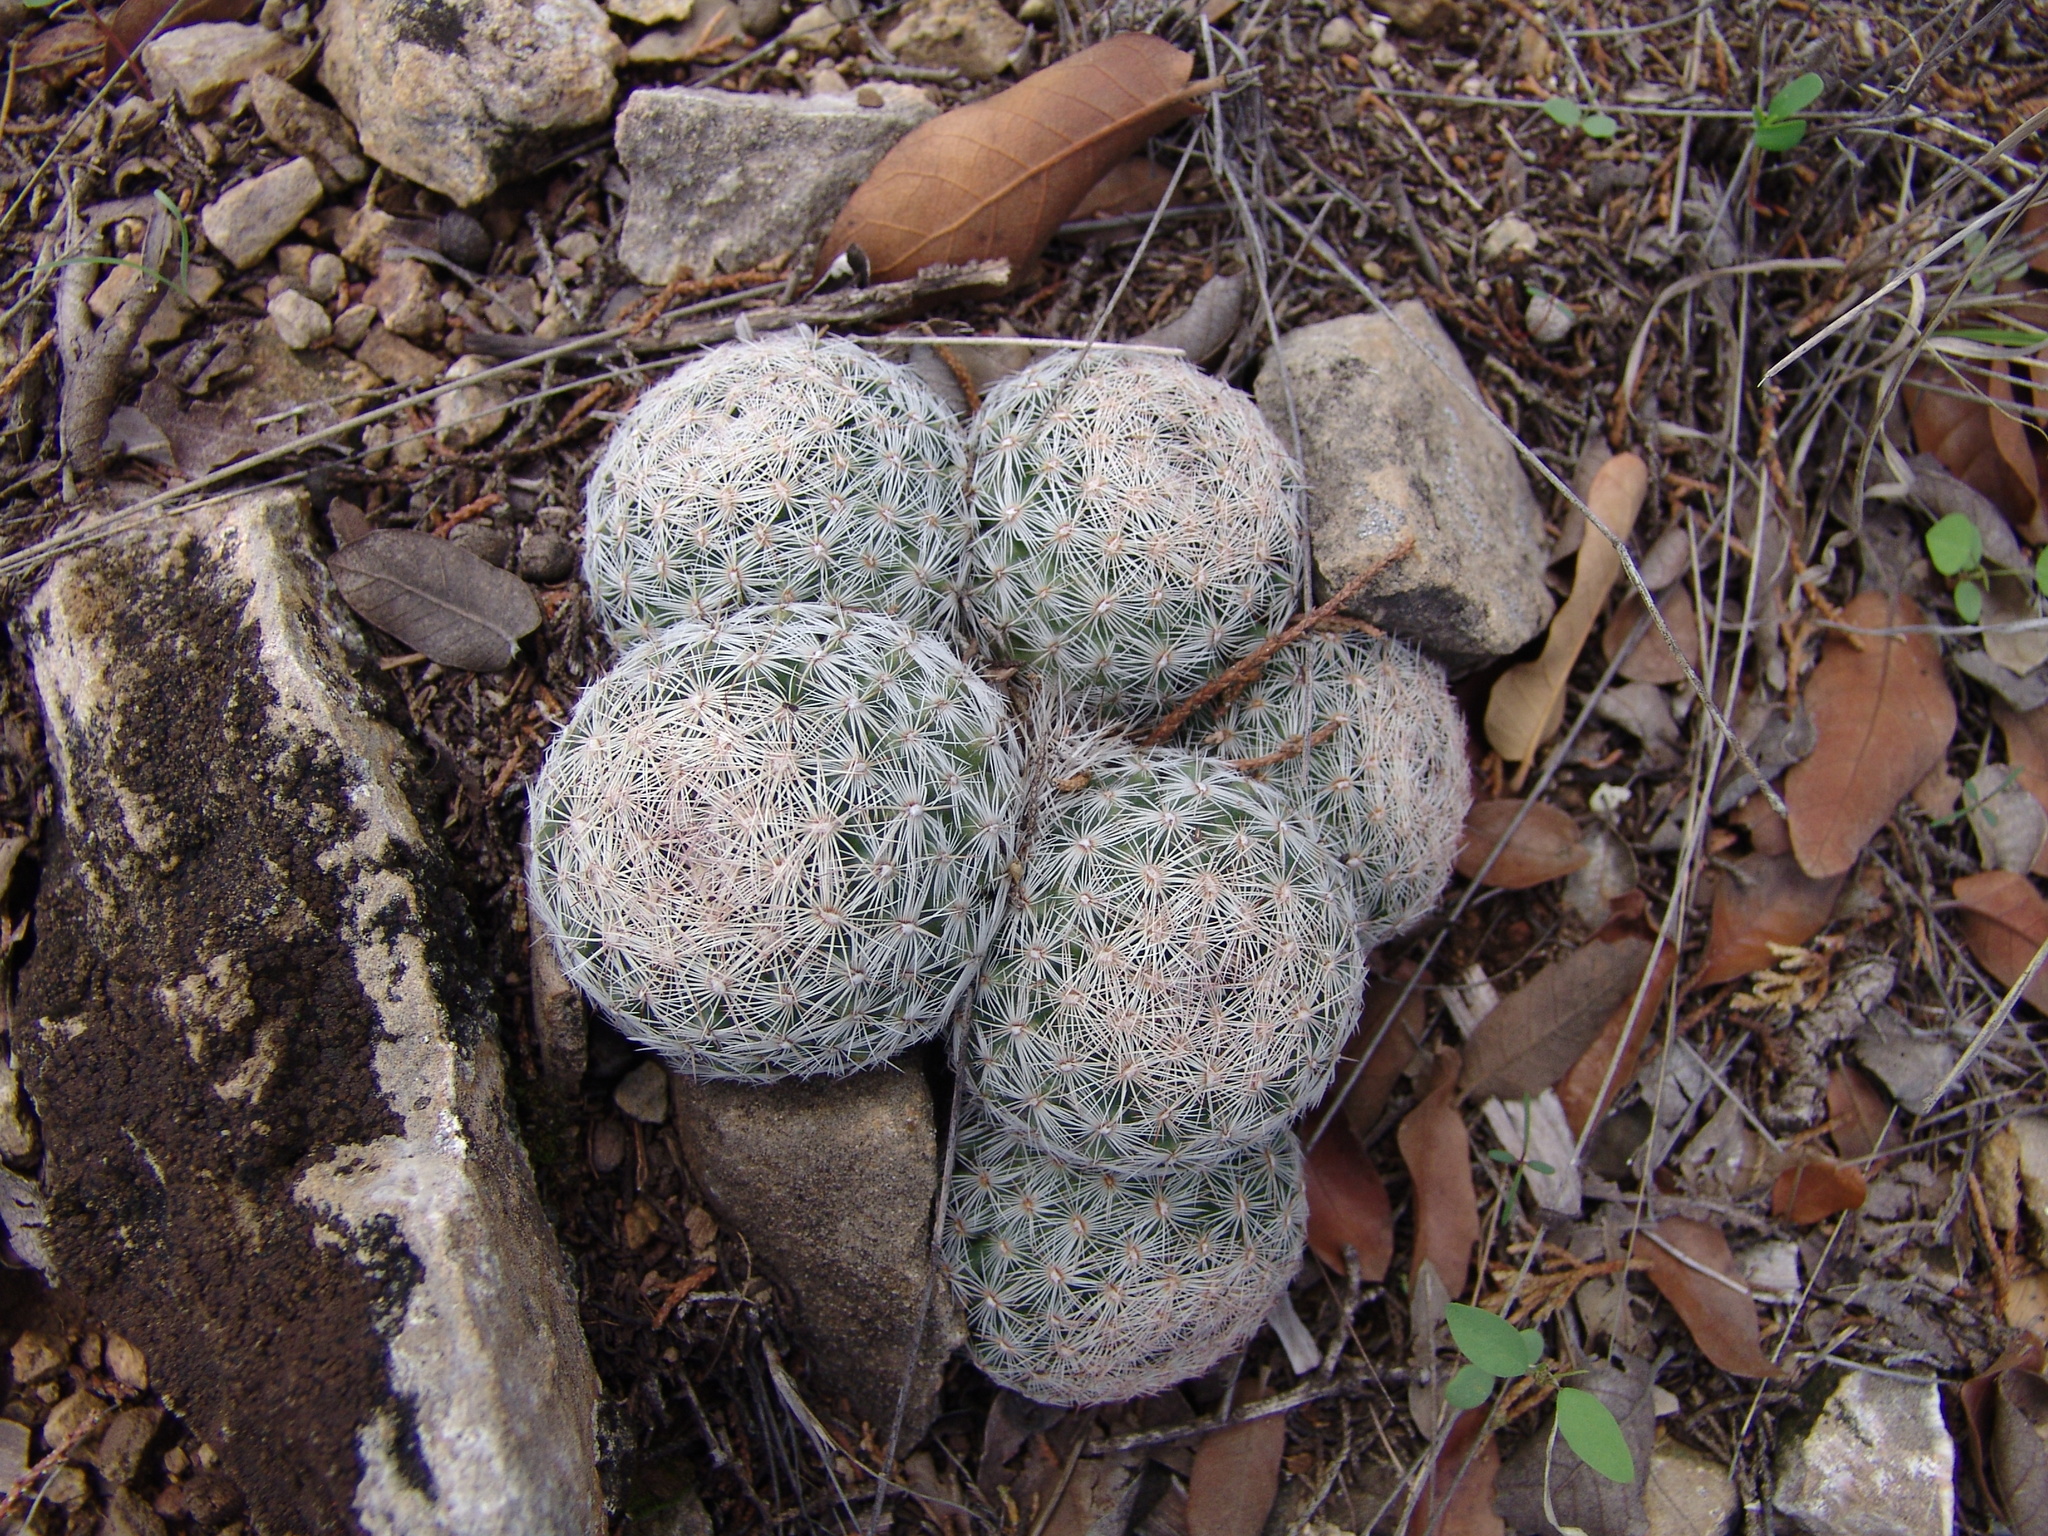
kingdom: Plantae
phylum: Tracheophyta
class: Magnoliopsida
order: Caryophyllales
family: Cactaceae
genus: Pelecyphora
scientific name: Pelecyphora vivipara
